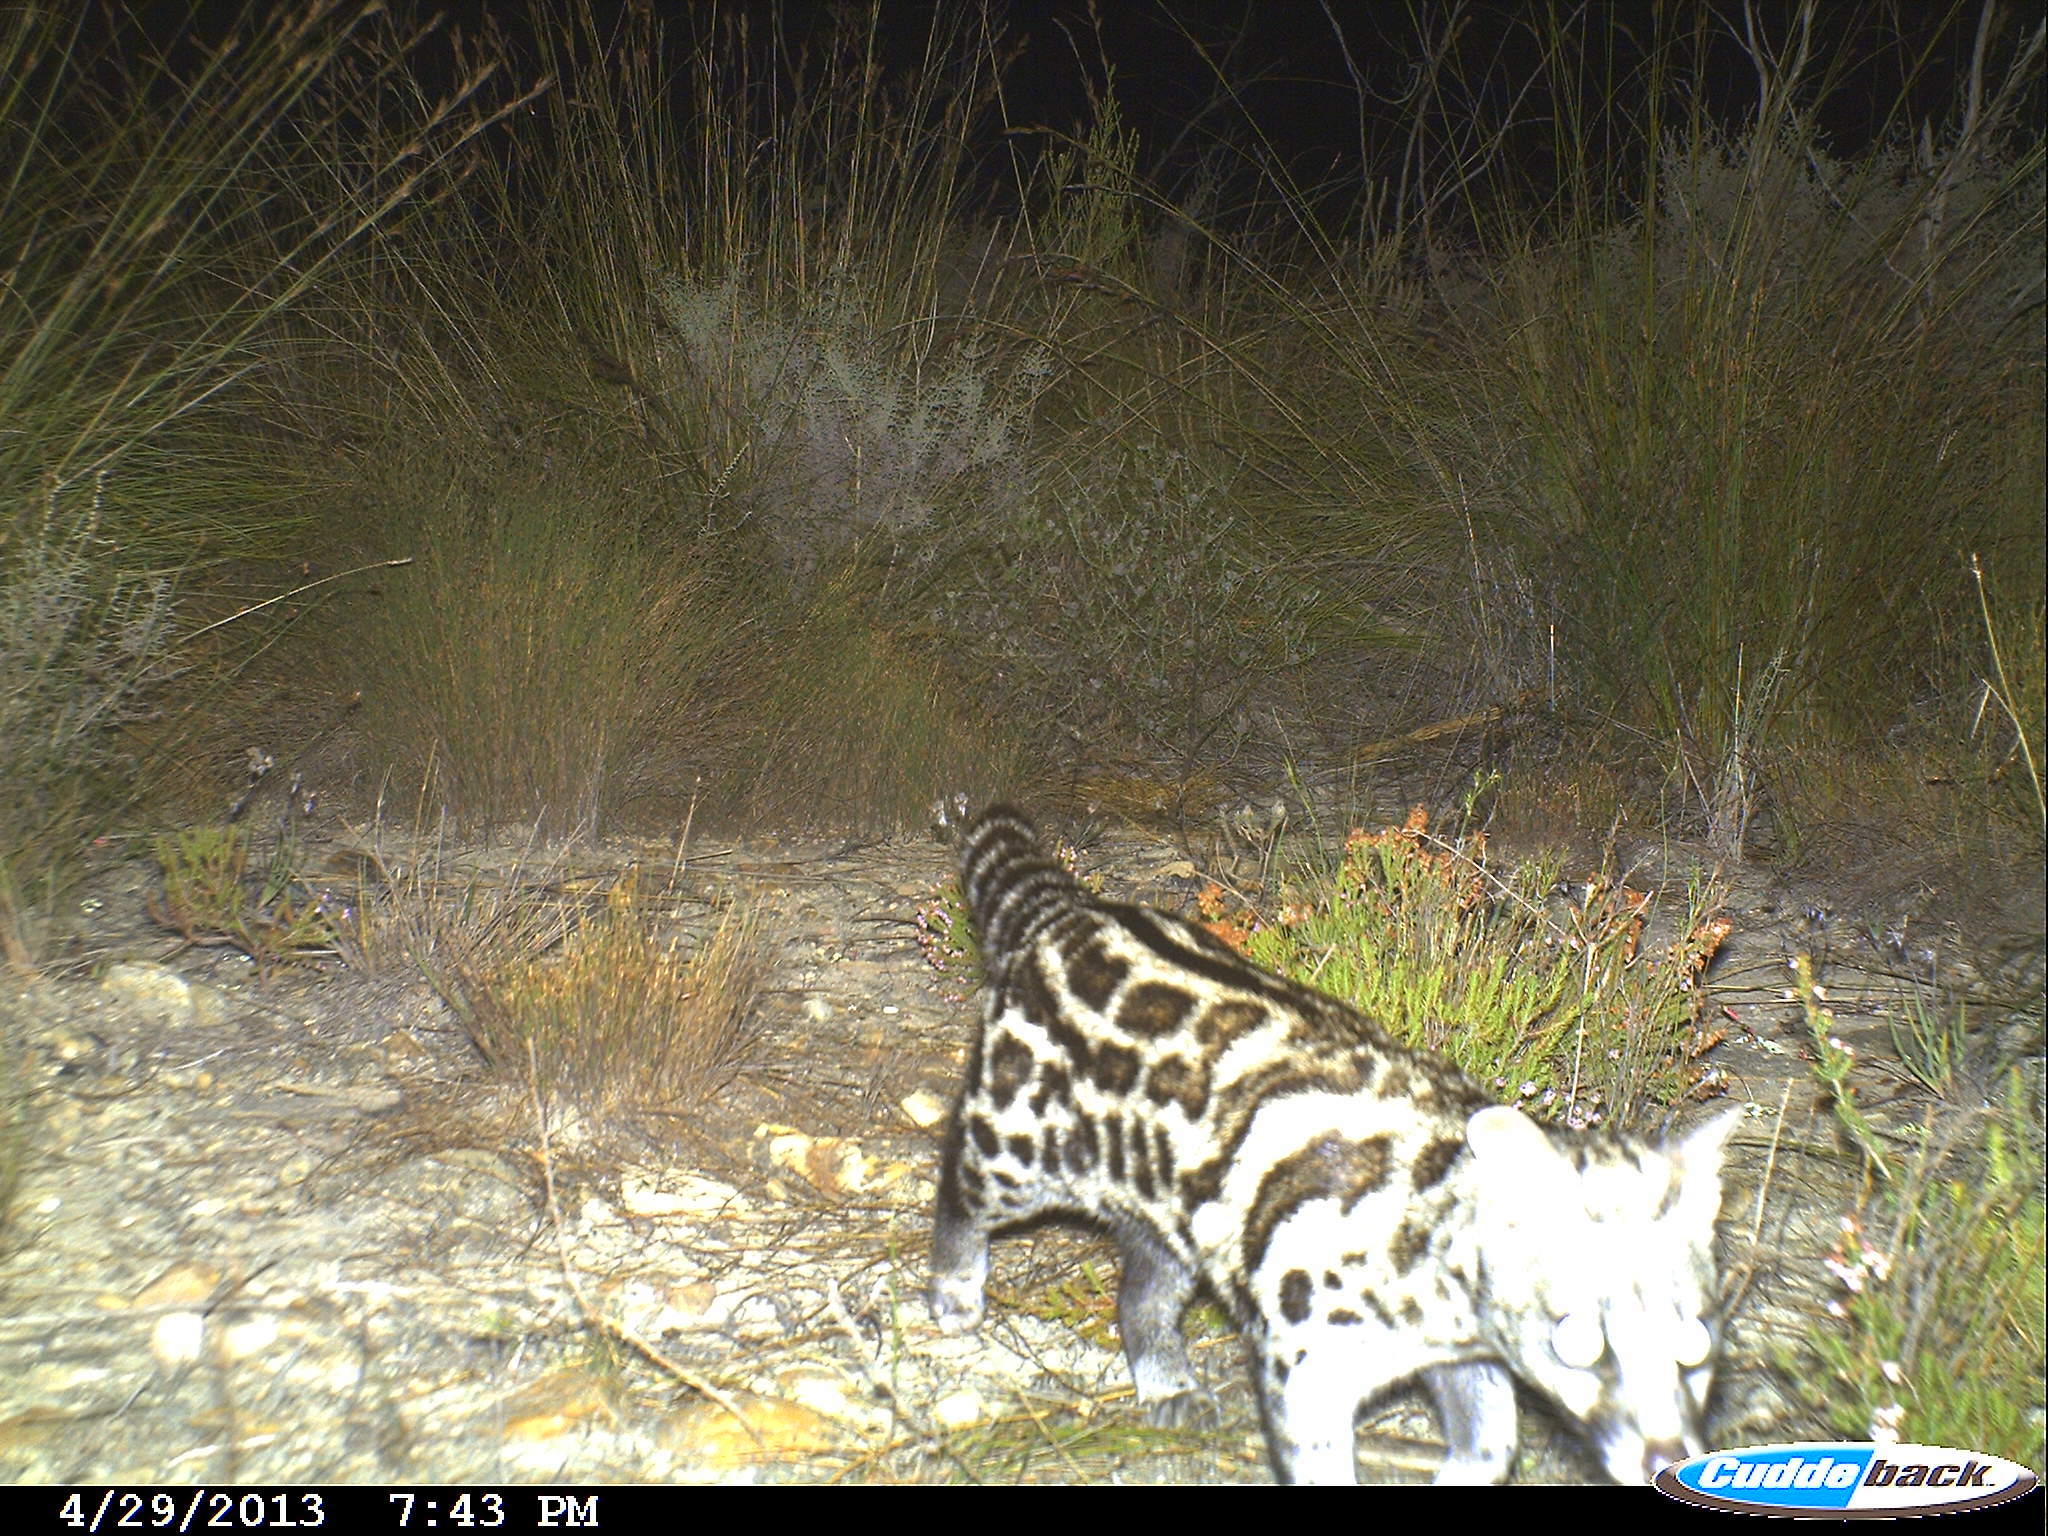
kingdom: Animalia
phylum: Chordata
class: Mammalia
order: Carnivora
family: Viverridae
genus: Genetta
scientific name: Genetta tigrina
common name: Cape genet
